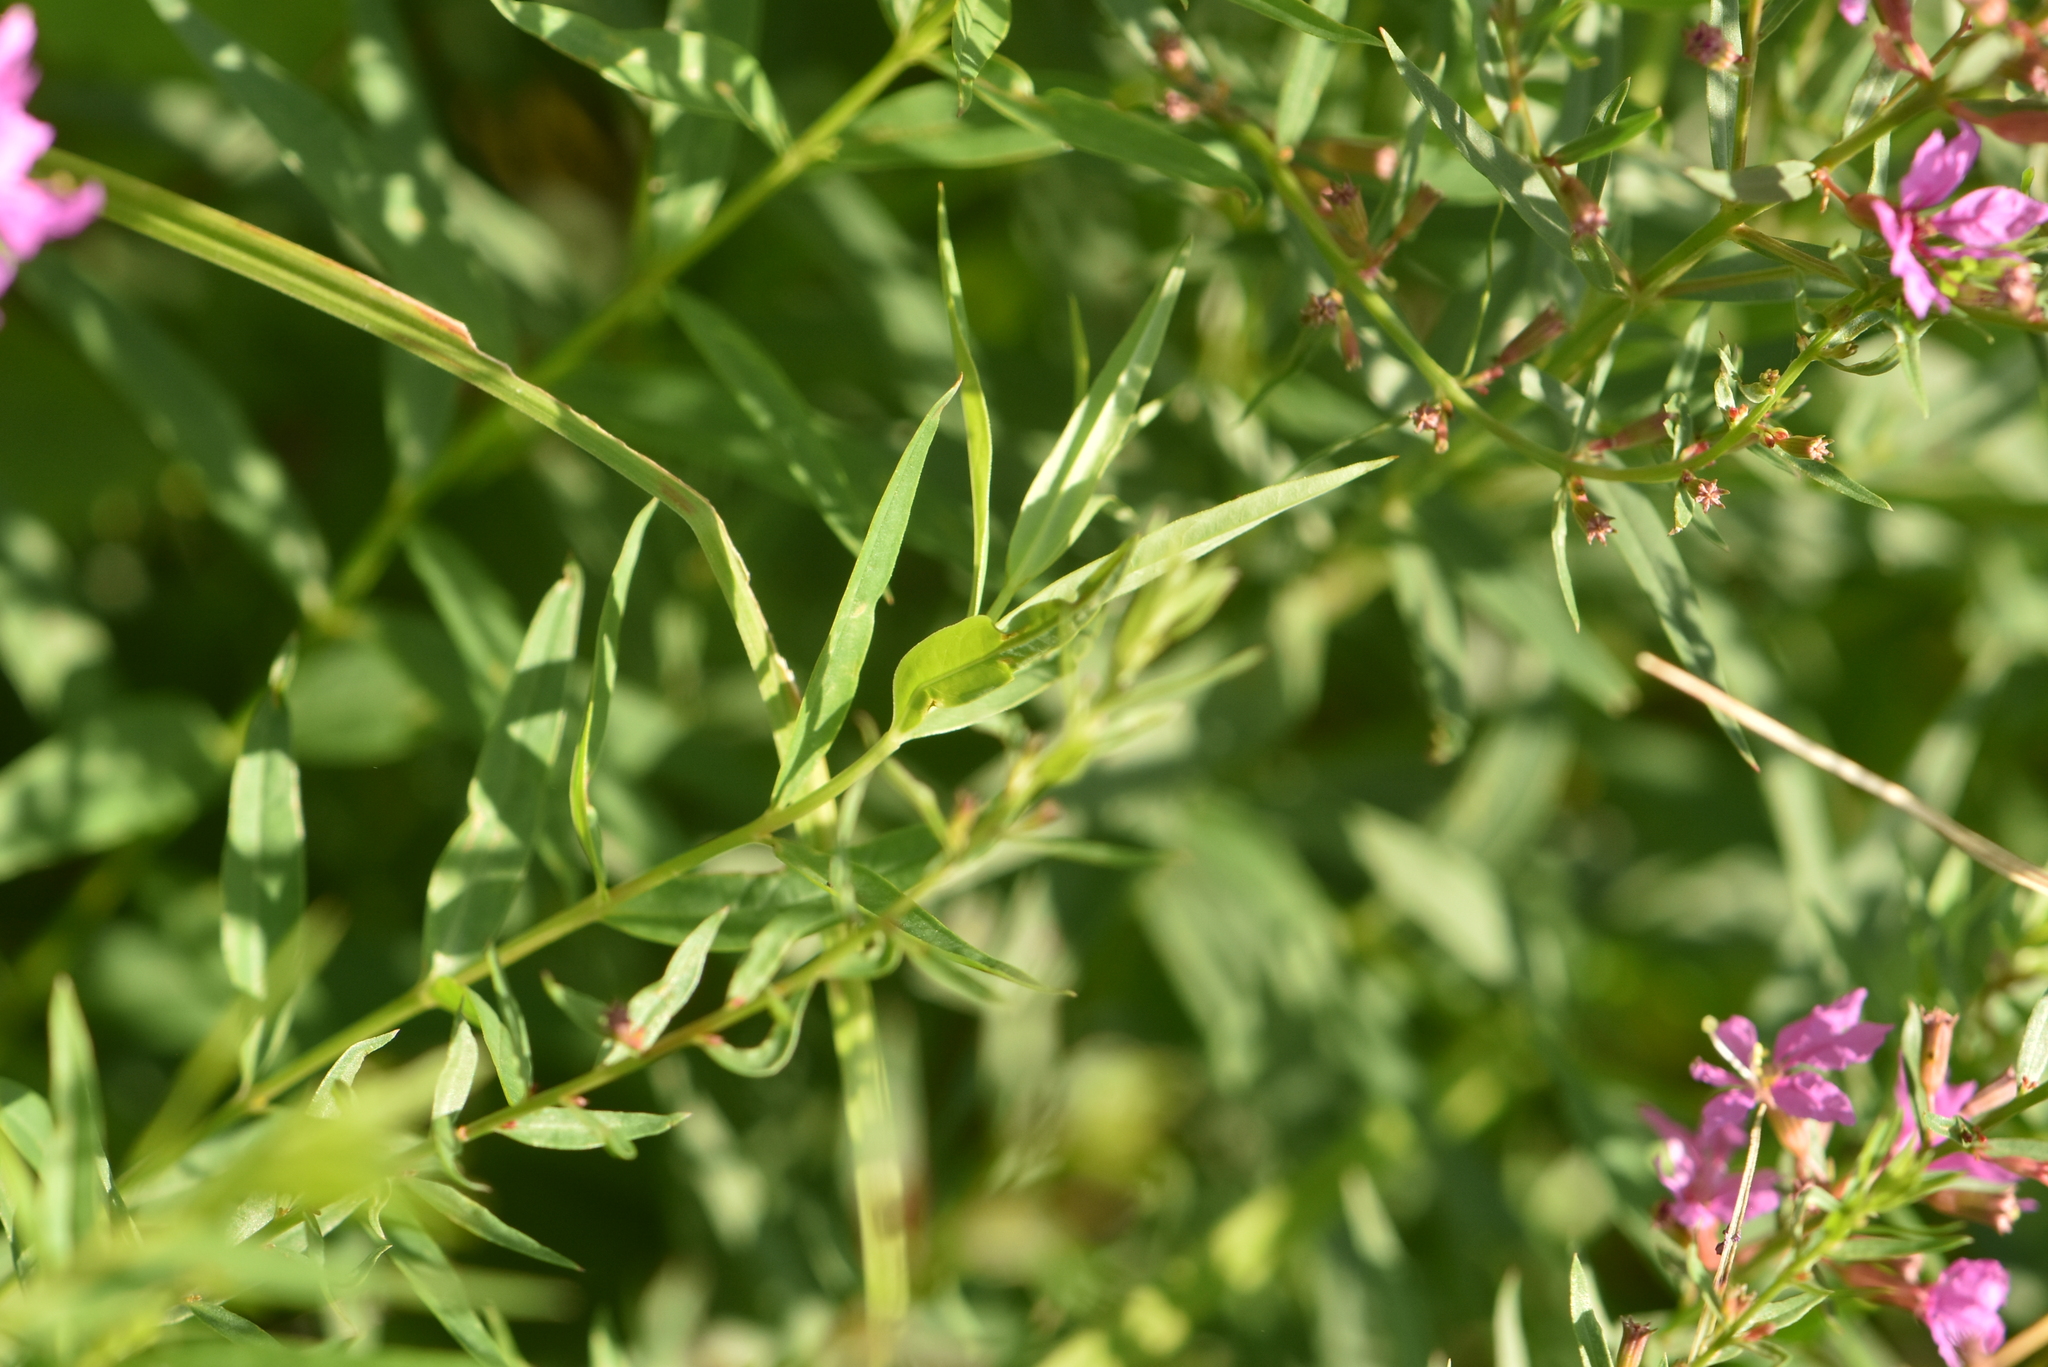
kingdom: Plantae
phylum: Tracheophyta
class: Magnoliopsida
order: Myrtales
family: Lythraceae
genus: Lythrum
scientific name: Lythrum virgatum
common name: European wand loosestrife
